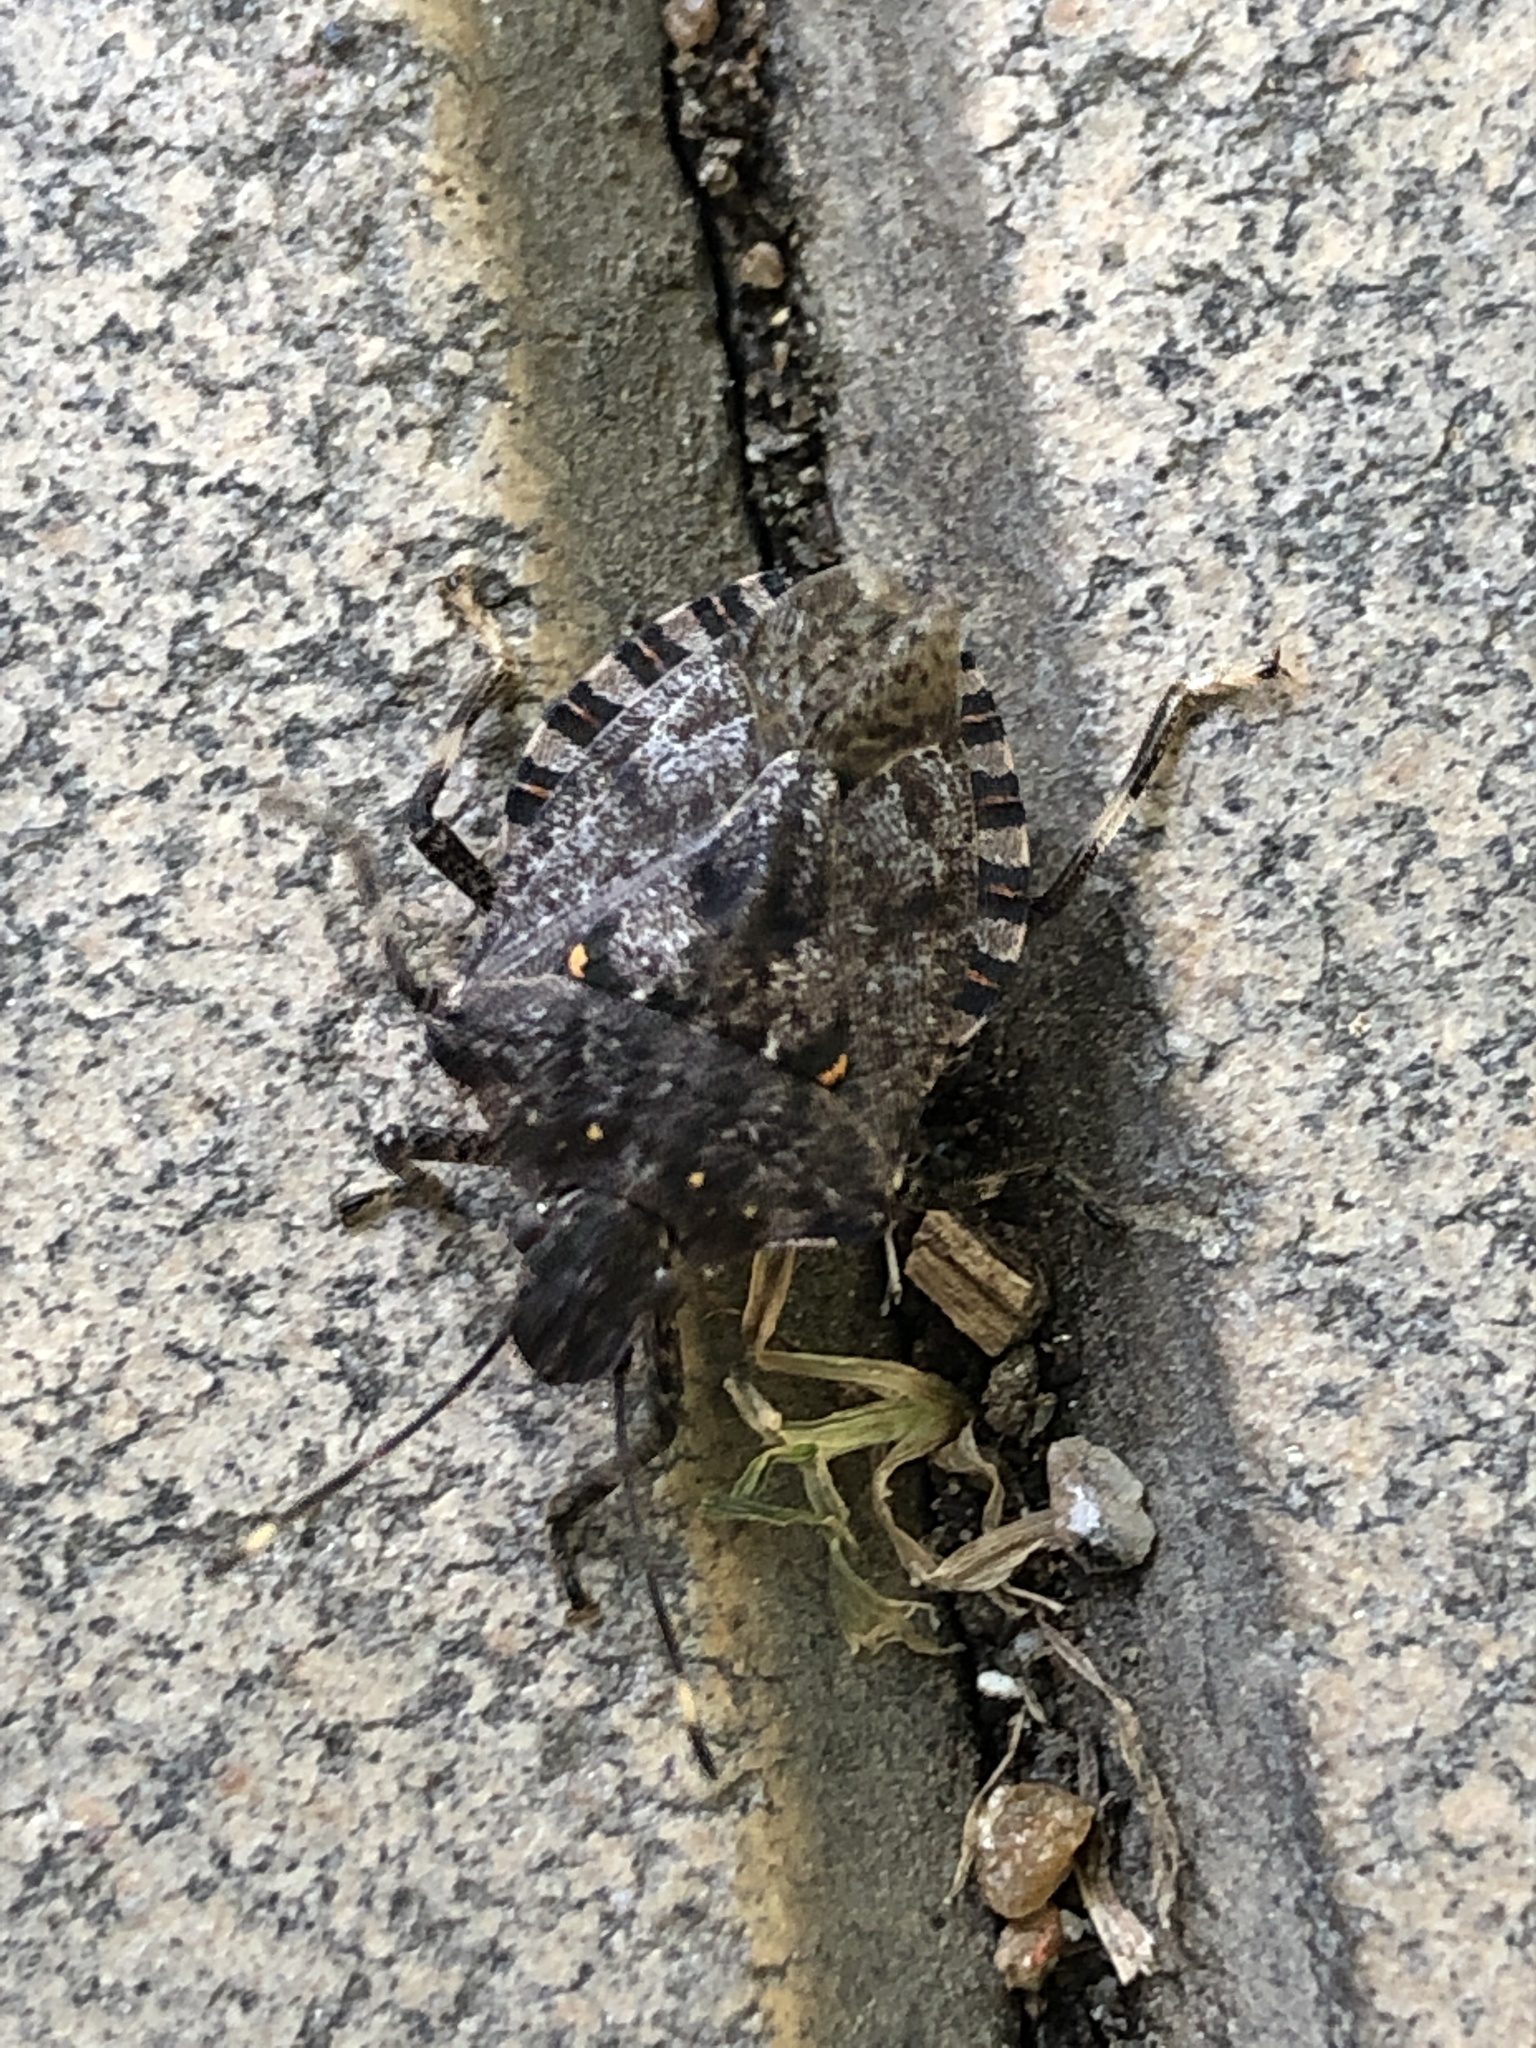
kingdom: Animalia
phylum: Arthropoda
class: Insecta
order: Hemiptera
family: Pentatomidae
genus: Homalogonia
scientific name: Homalogonia
